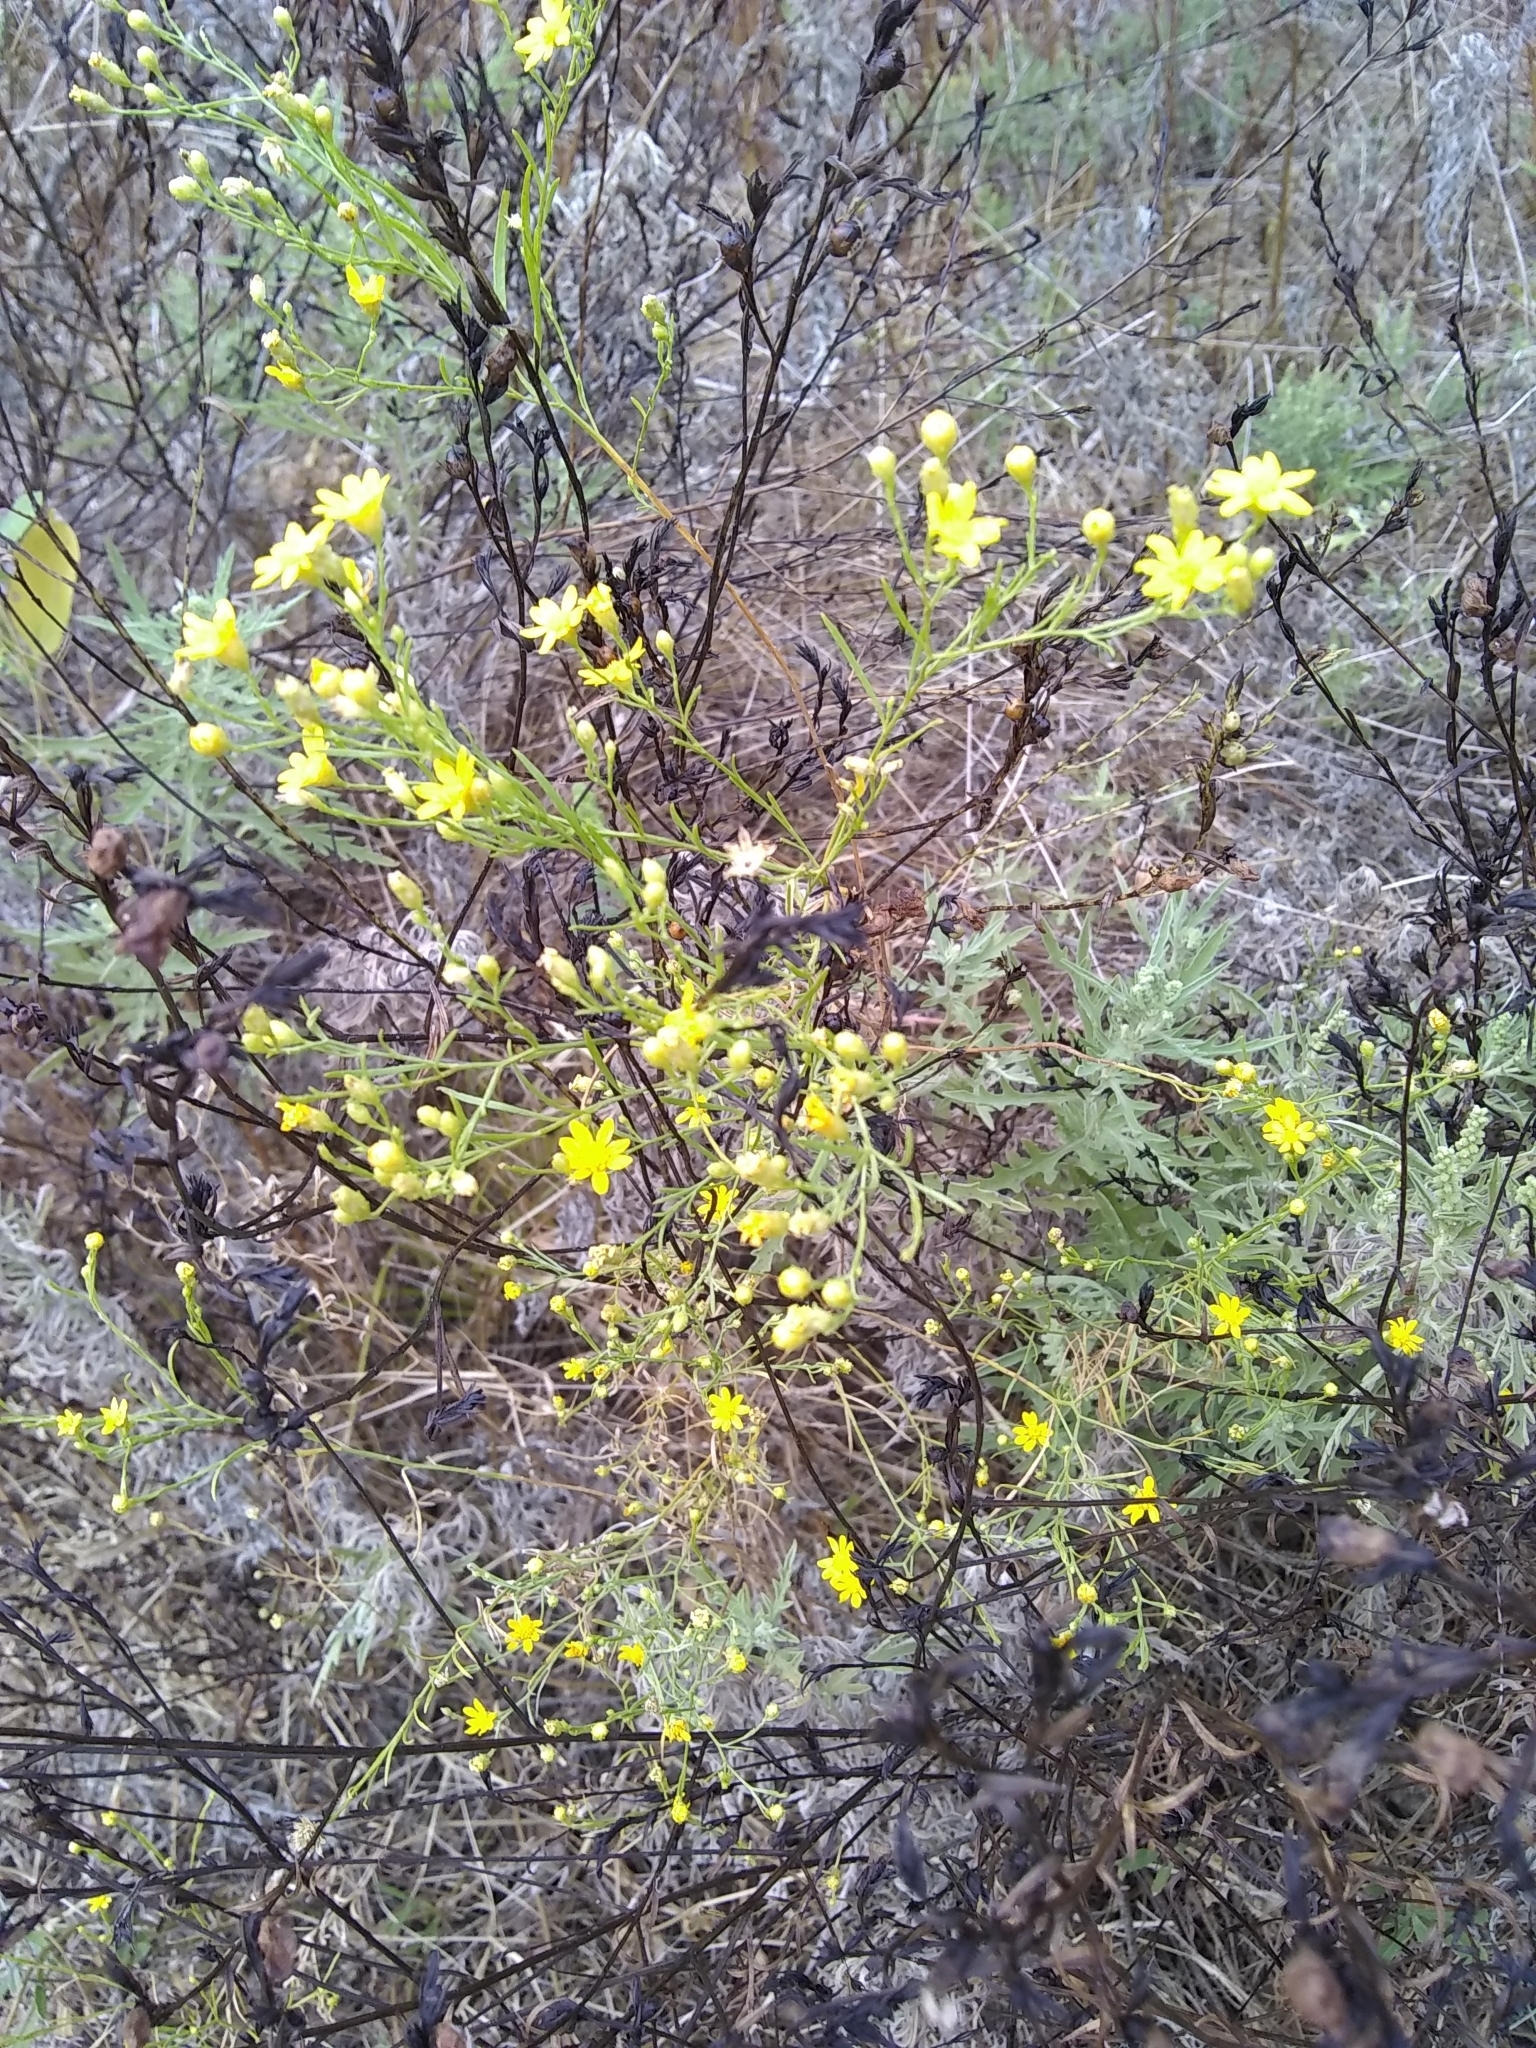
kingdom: Plantae
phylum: Tracheophyta
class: Magnoliopsida
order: Asterales
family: Asteraceae
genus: Amphiachyris
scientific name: Amphiachyris dracunculoides
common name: Broomweed
